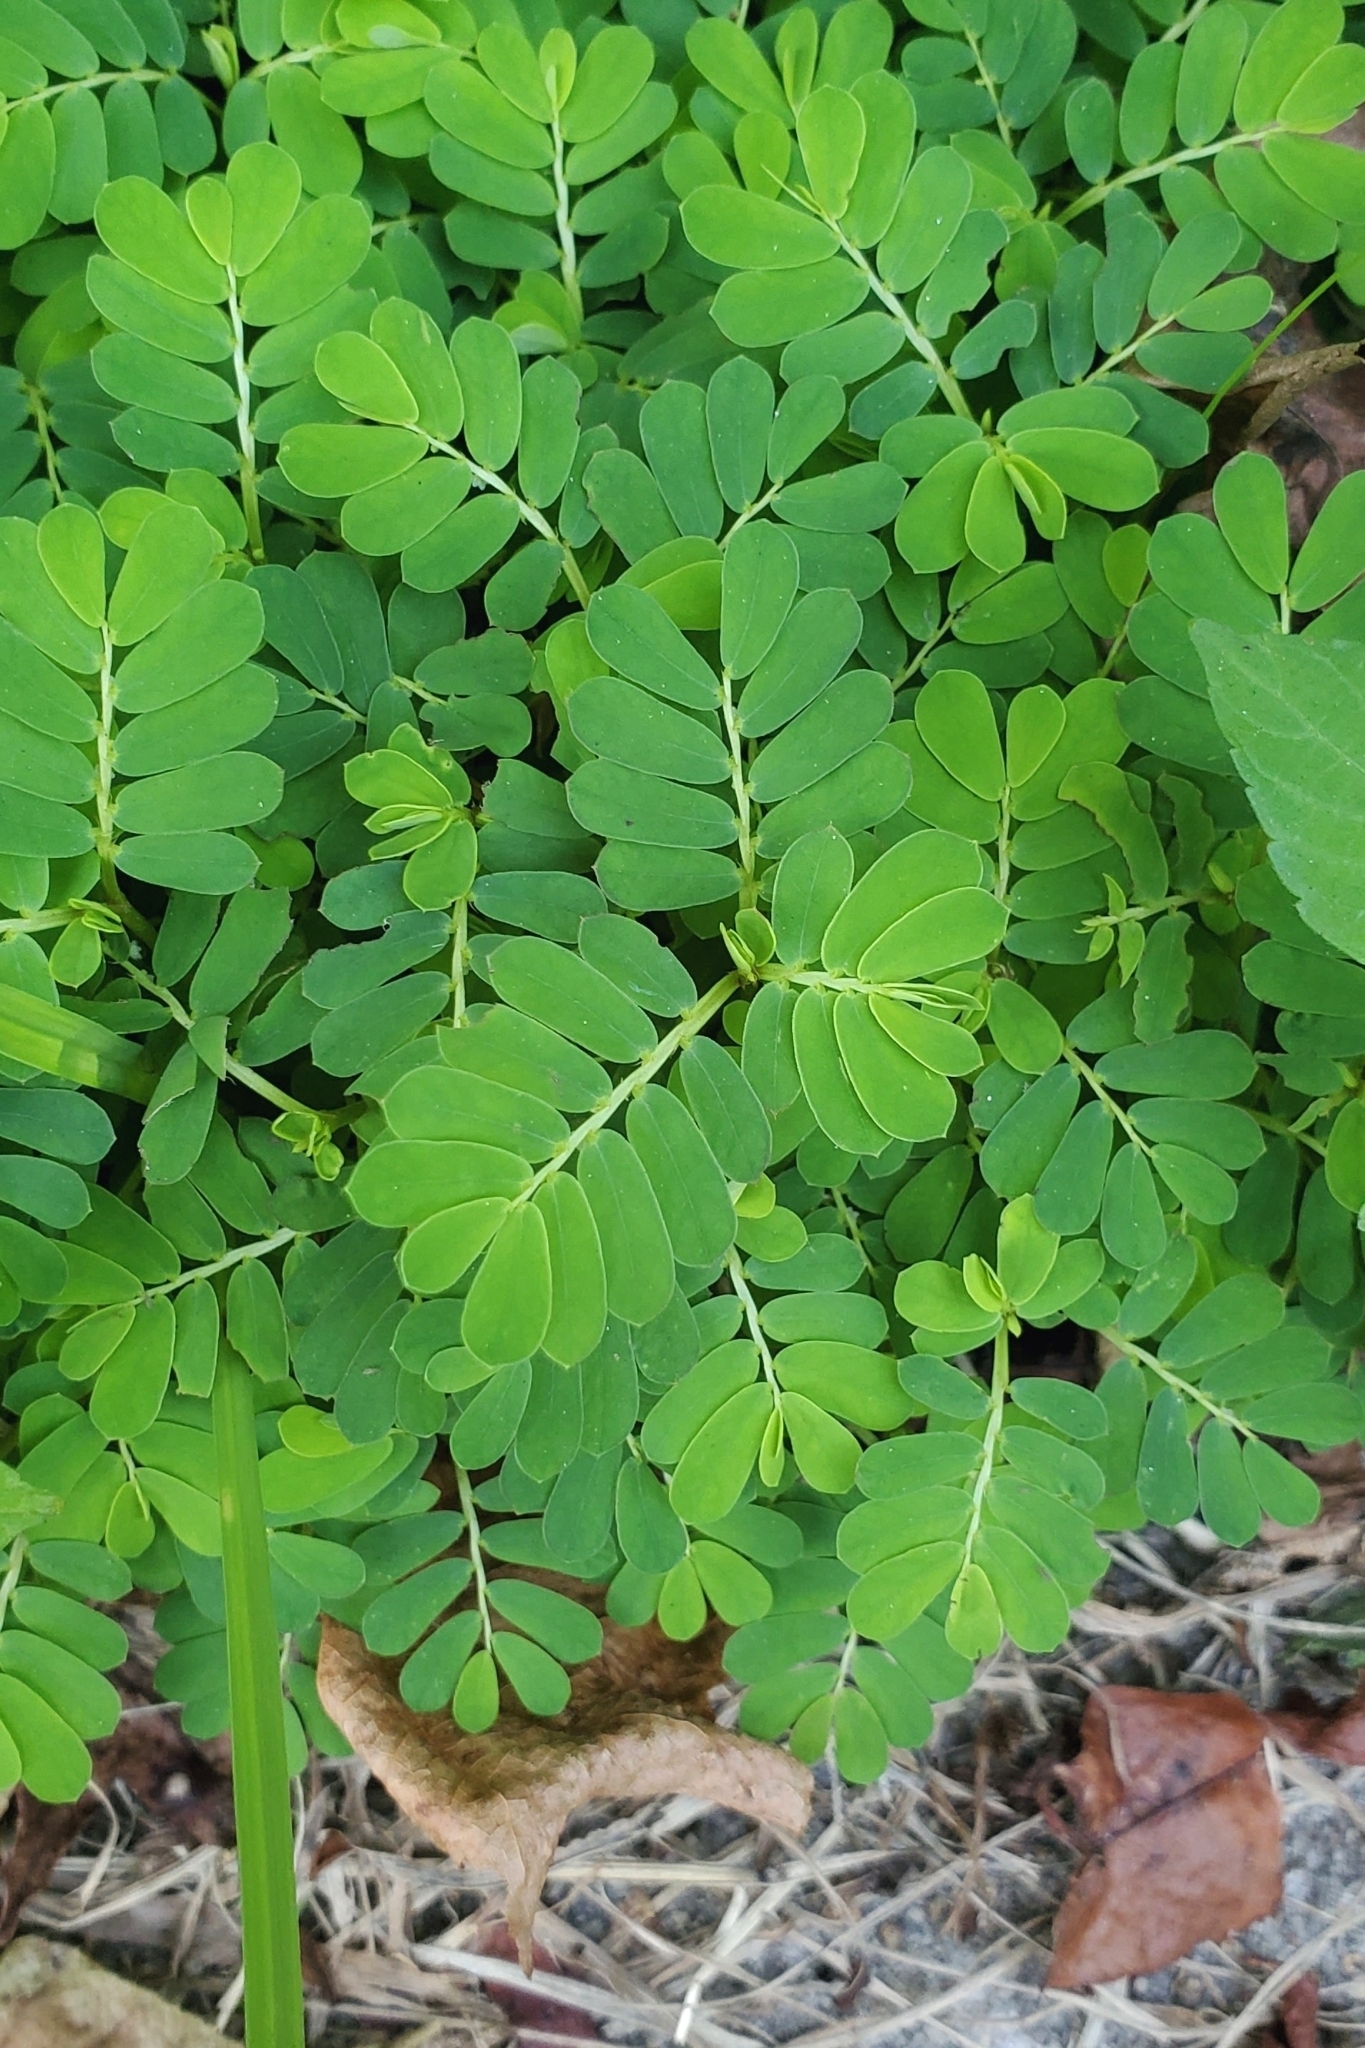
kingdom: Plantae
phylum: Tracheophyta
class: Magnoliopsida
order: Malpighiales
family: Phyllanthaceae
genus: Phyllanthus
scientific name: Phyllanthus urinaria
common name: Chamber bitter
